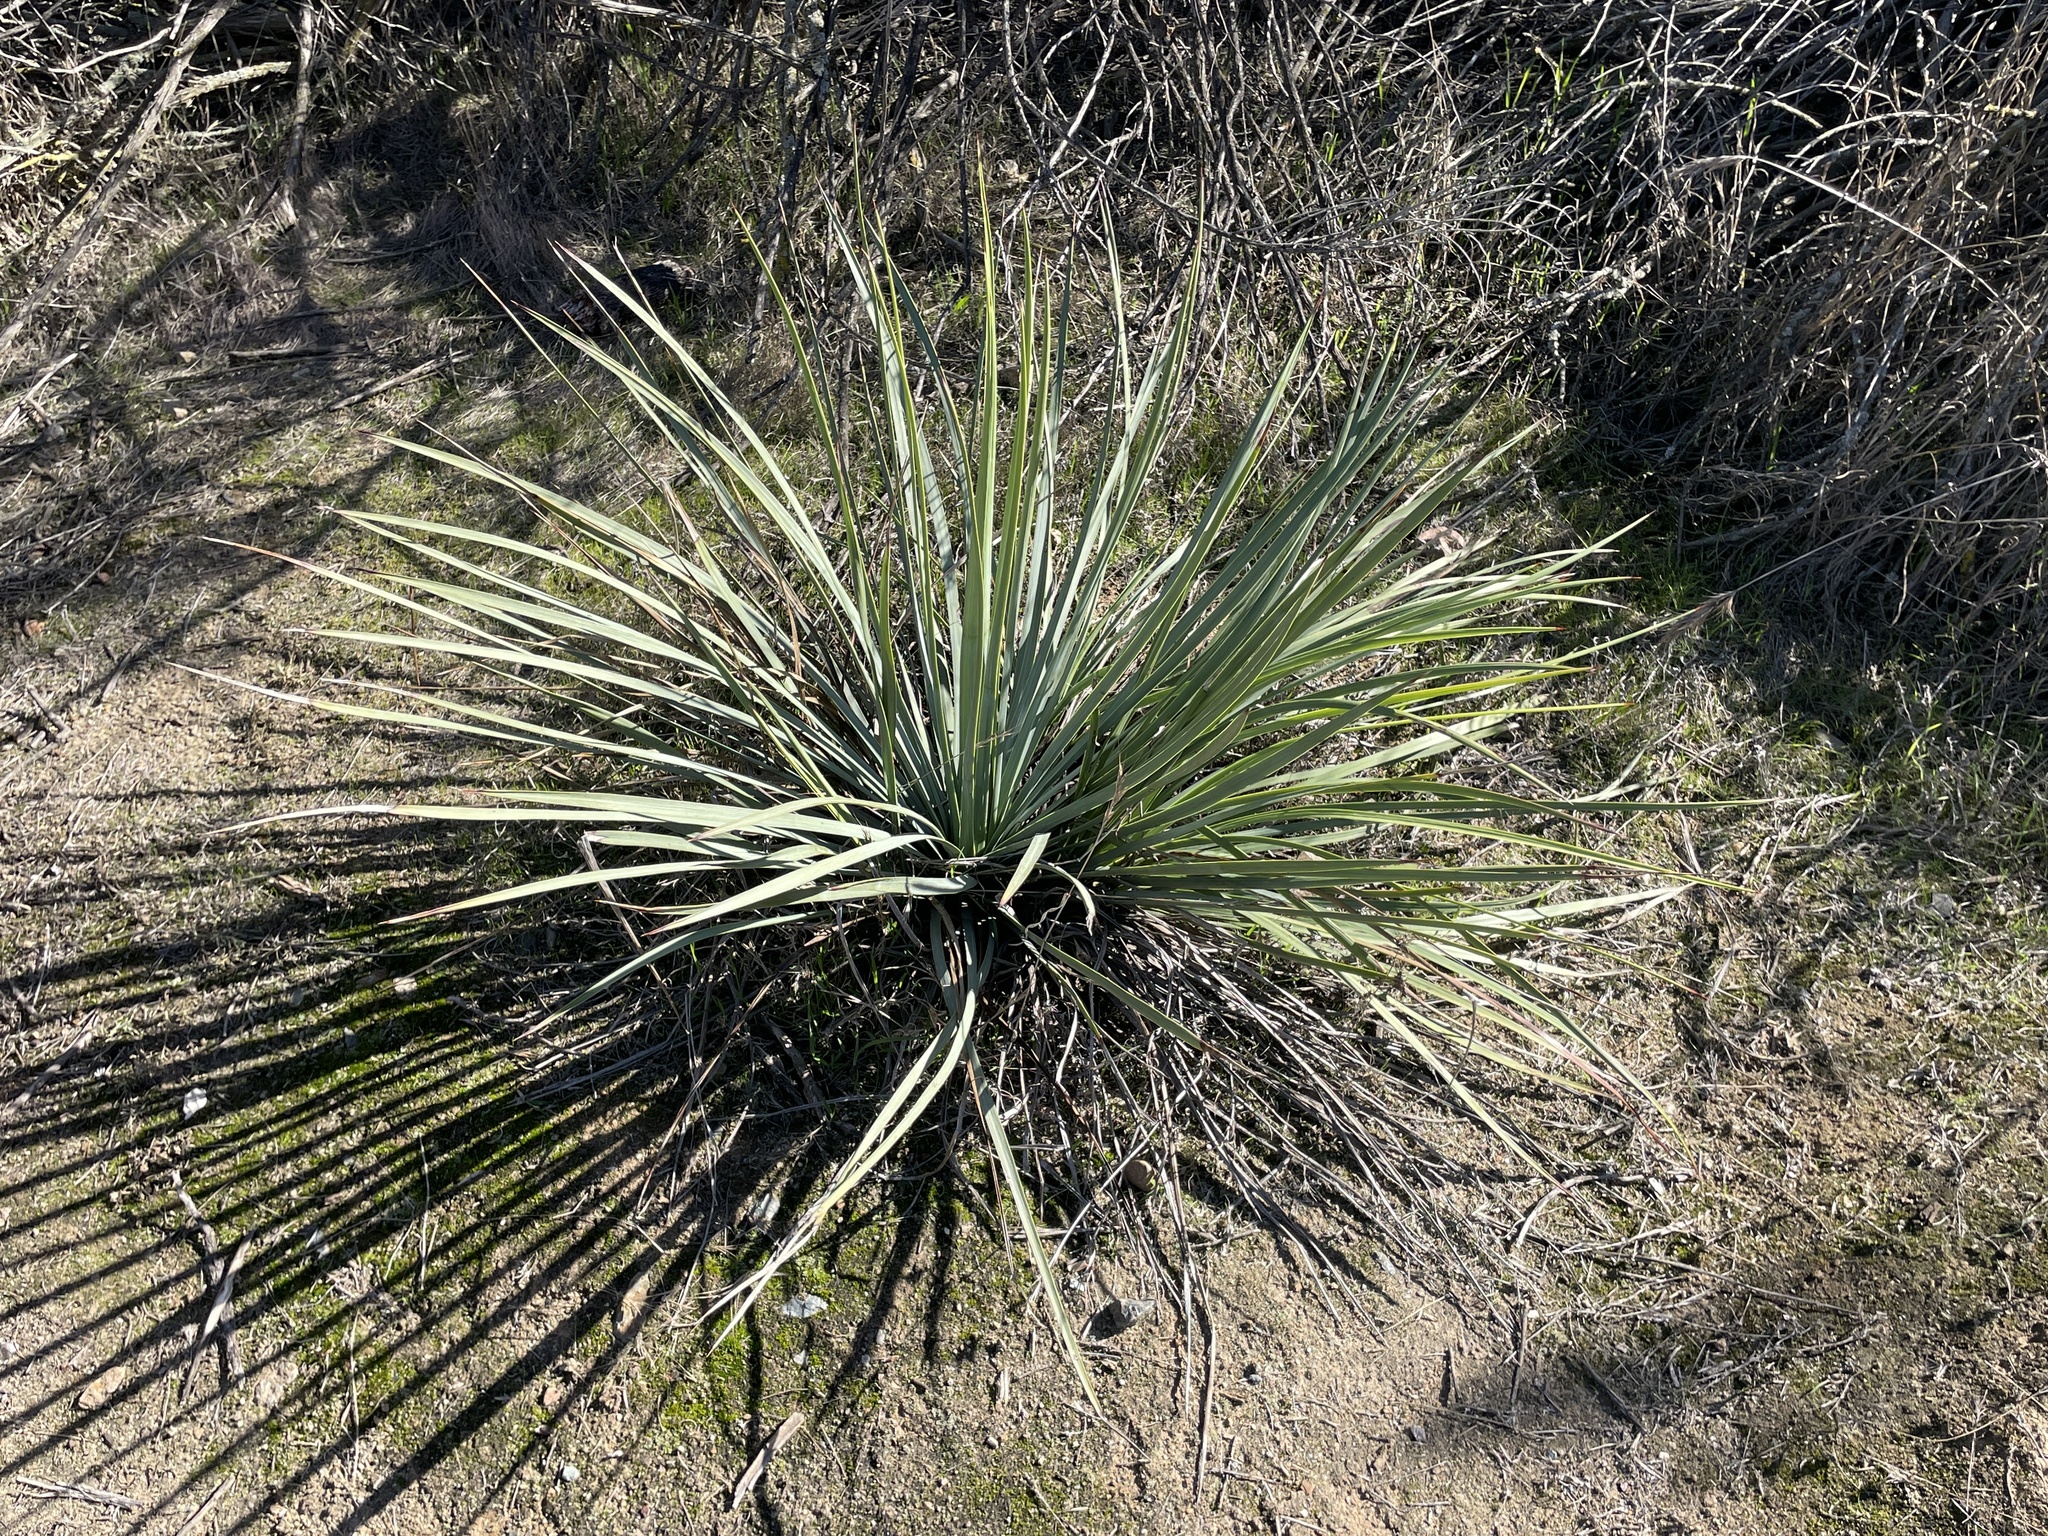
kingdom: Plantae
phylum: Tracheophyta
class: Liliopsida
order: Asparagales
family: Asparagaceae
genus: Hesperoyucca
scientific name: Hesperoyucca whipplei
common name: Our lord's-candle
